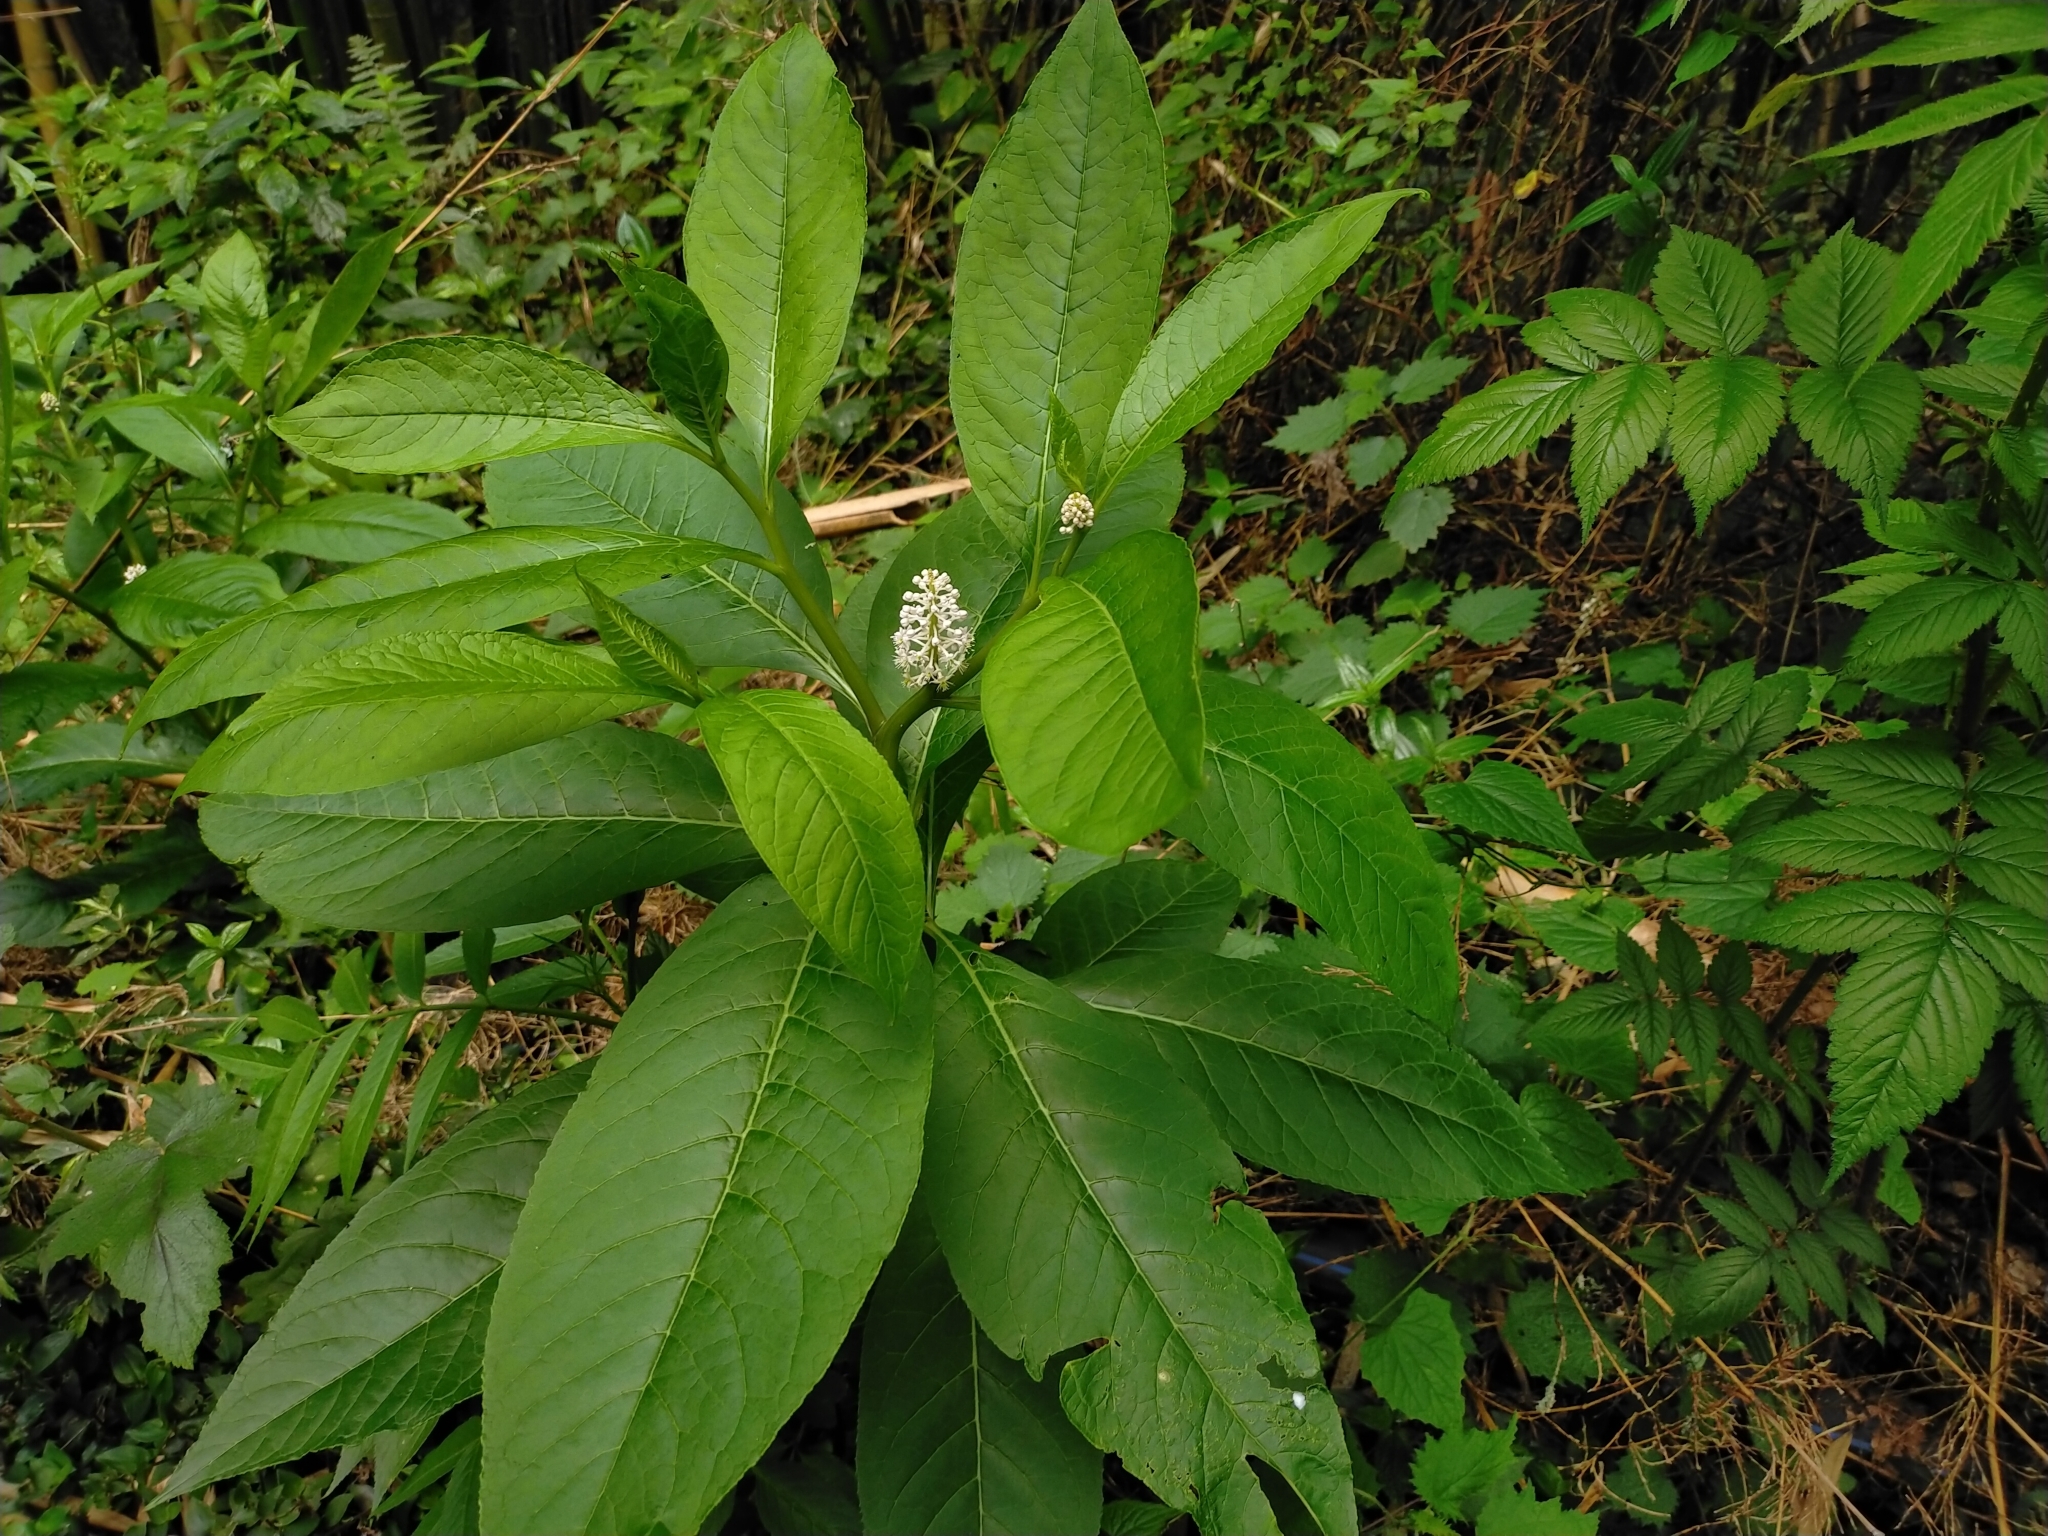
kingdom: Plantae
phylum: Tracheophyta
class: Magnoliopsida
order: Caryophyllales
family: Phytolaccaceae
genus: Phytolacca
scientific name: Phytolacca japonica
